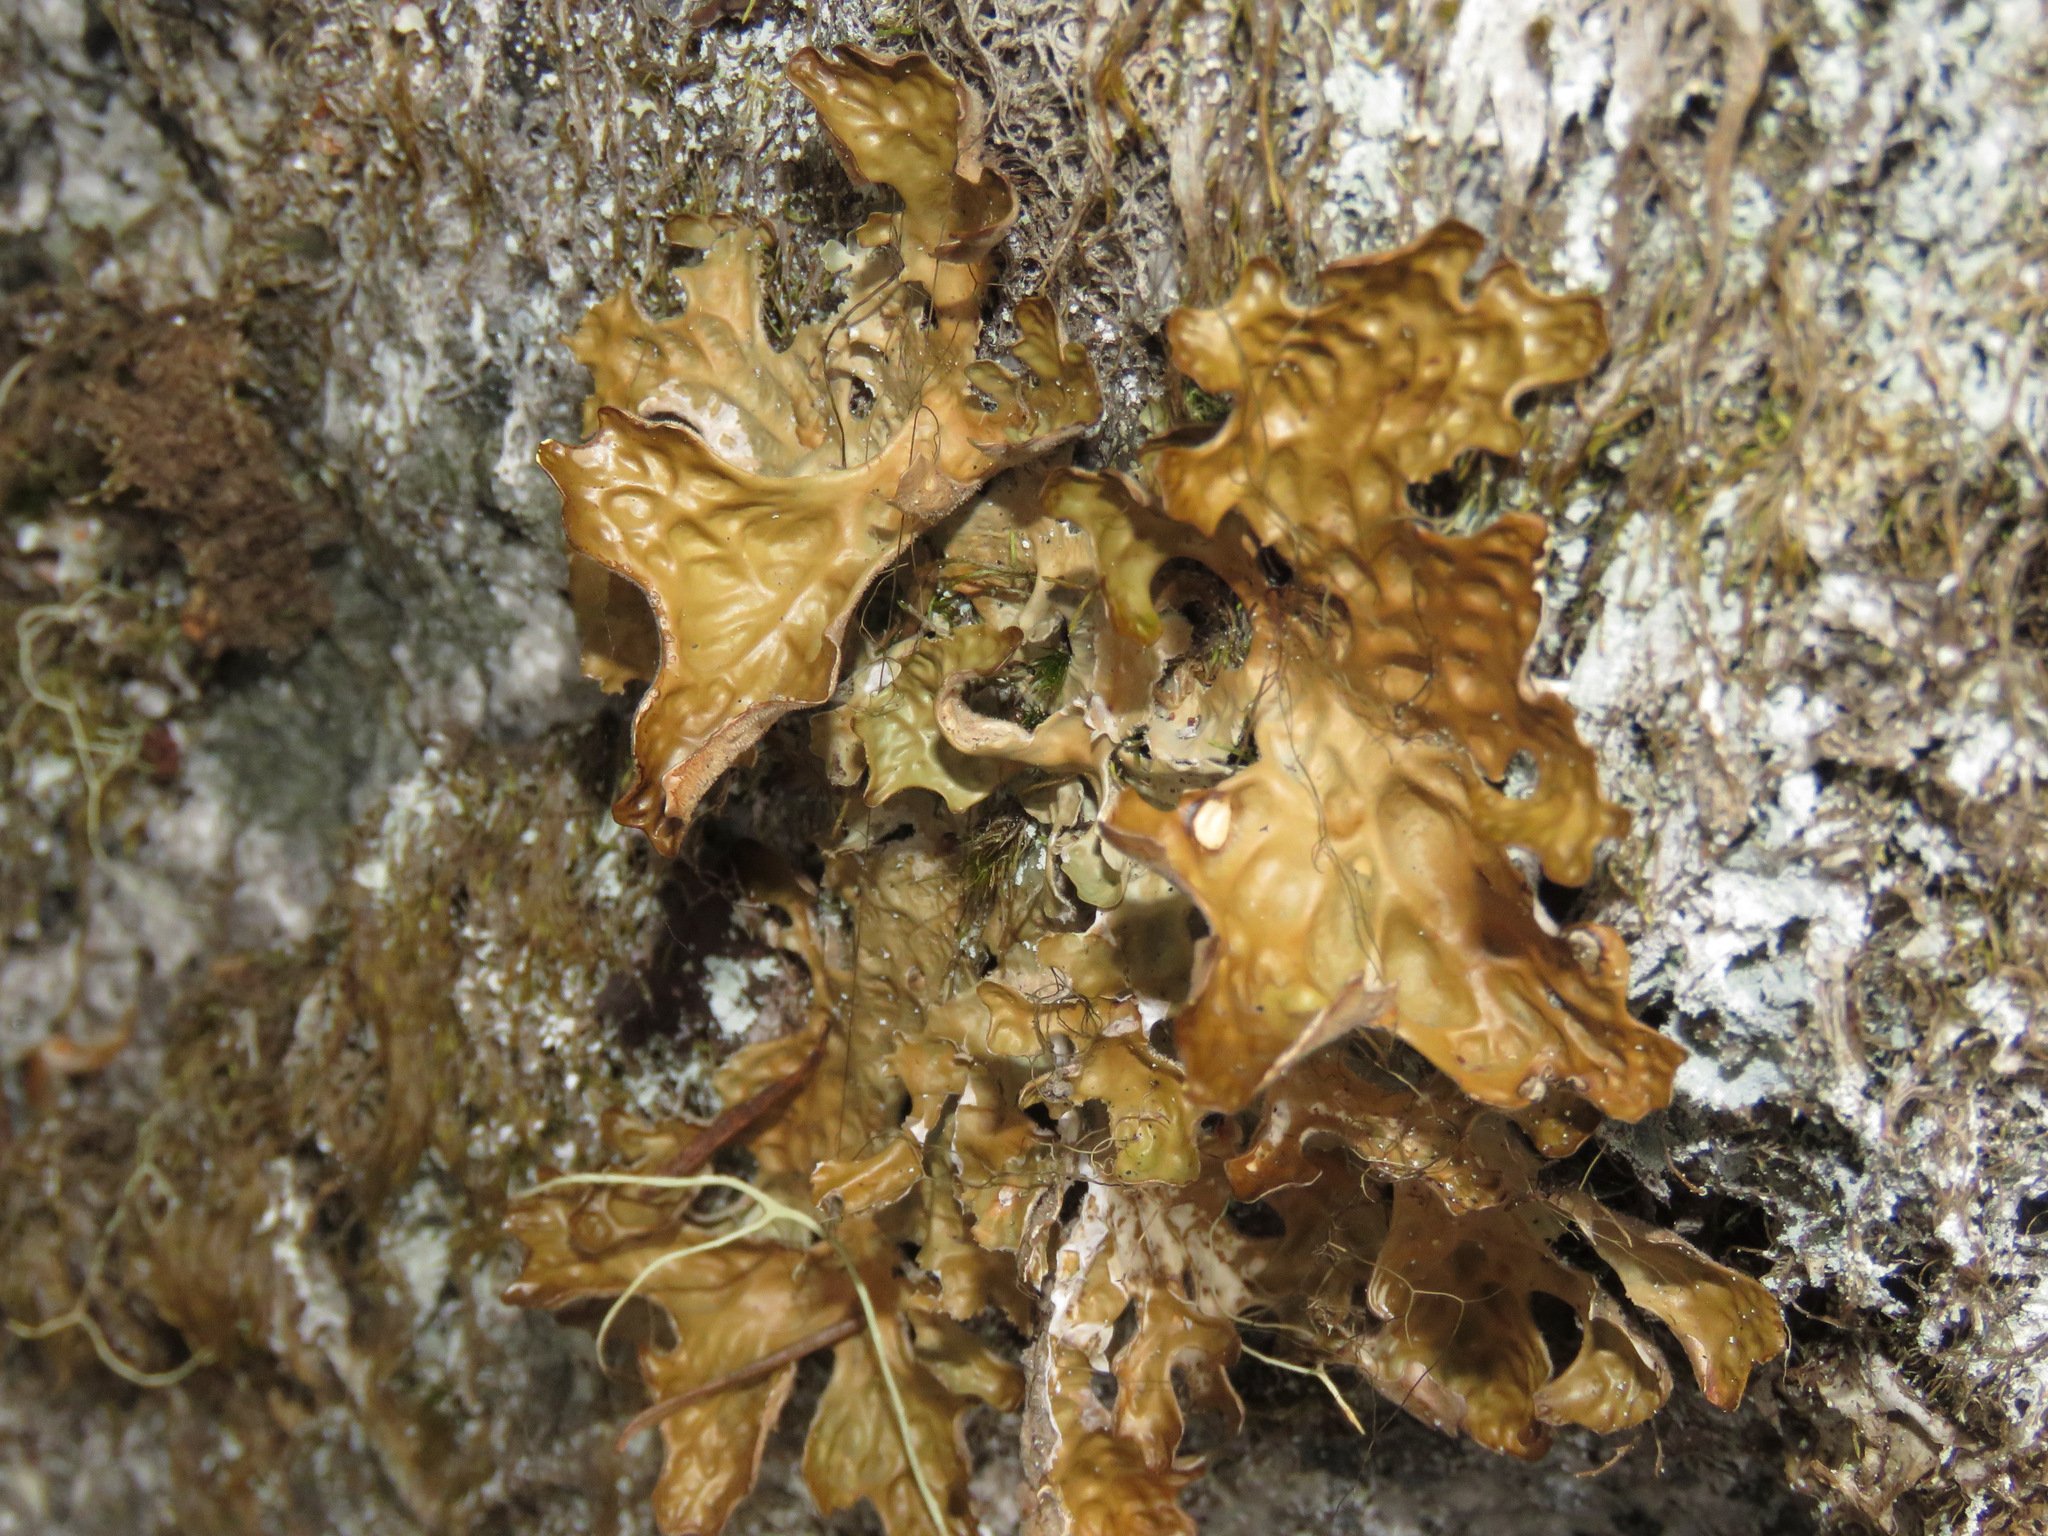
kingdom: Fungi
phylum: Ascomycota
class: Lecanoromycetes
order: Peltigerales
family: Lobariaceae
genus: Lobaria
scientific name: Lobaria pulmonaria
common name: Lungwort
